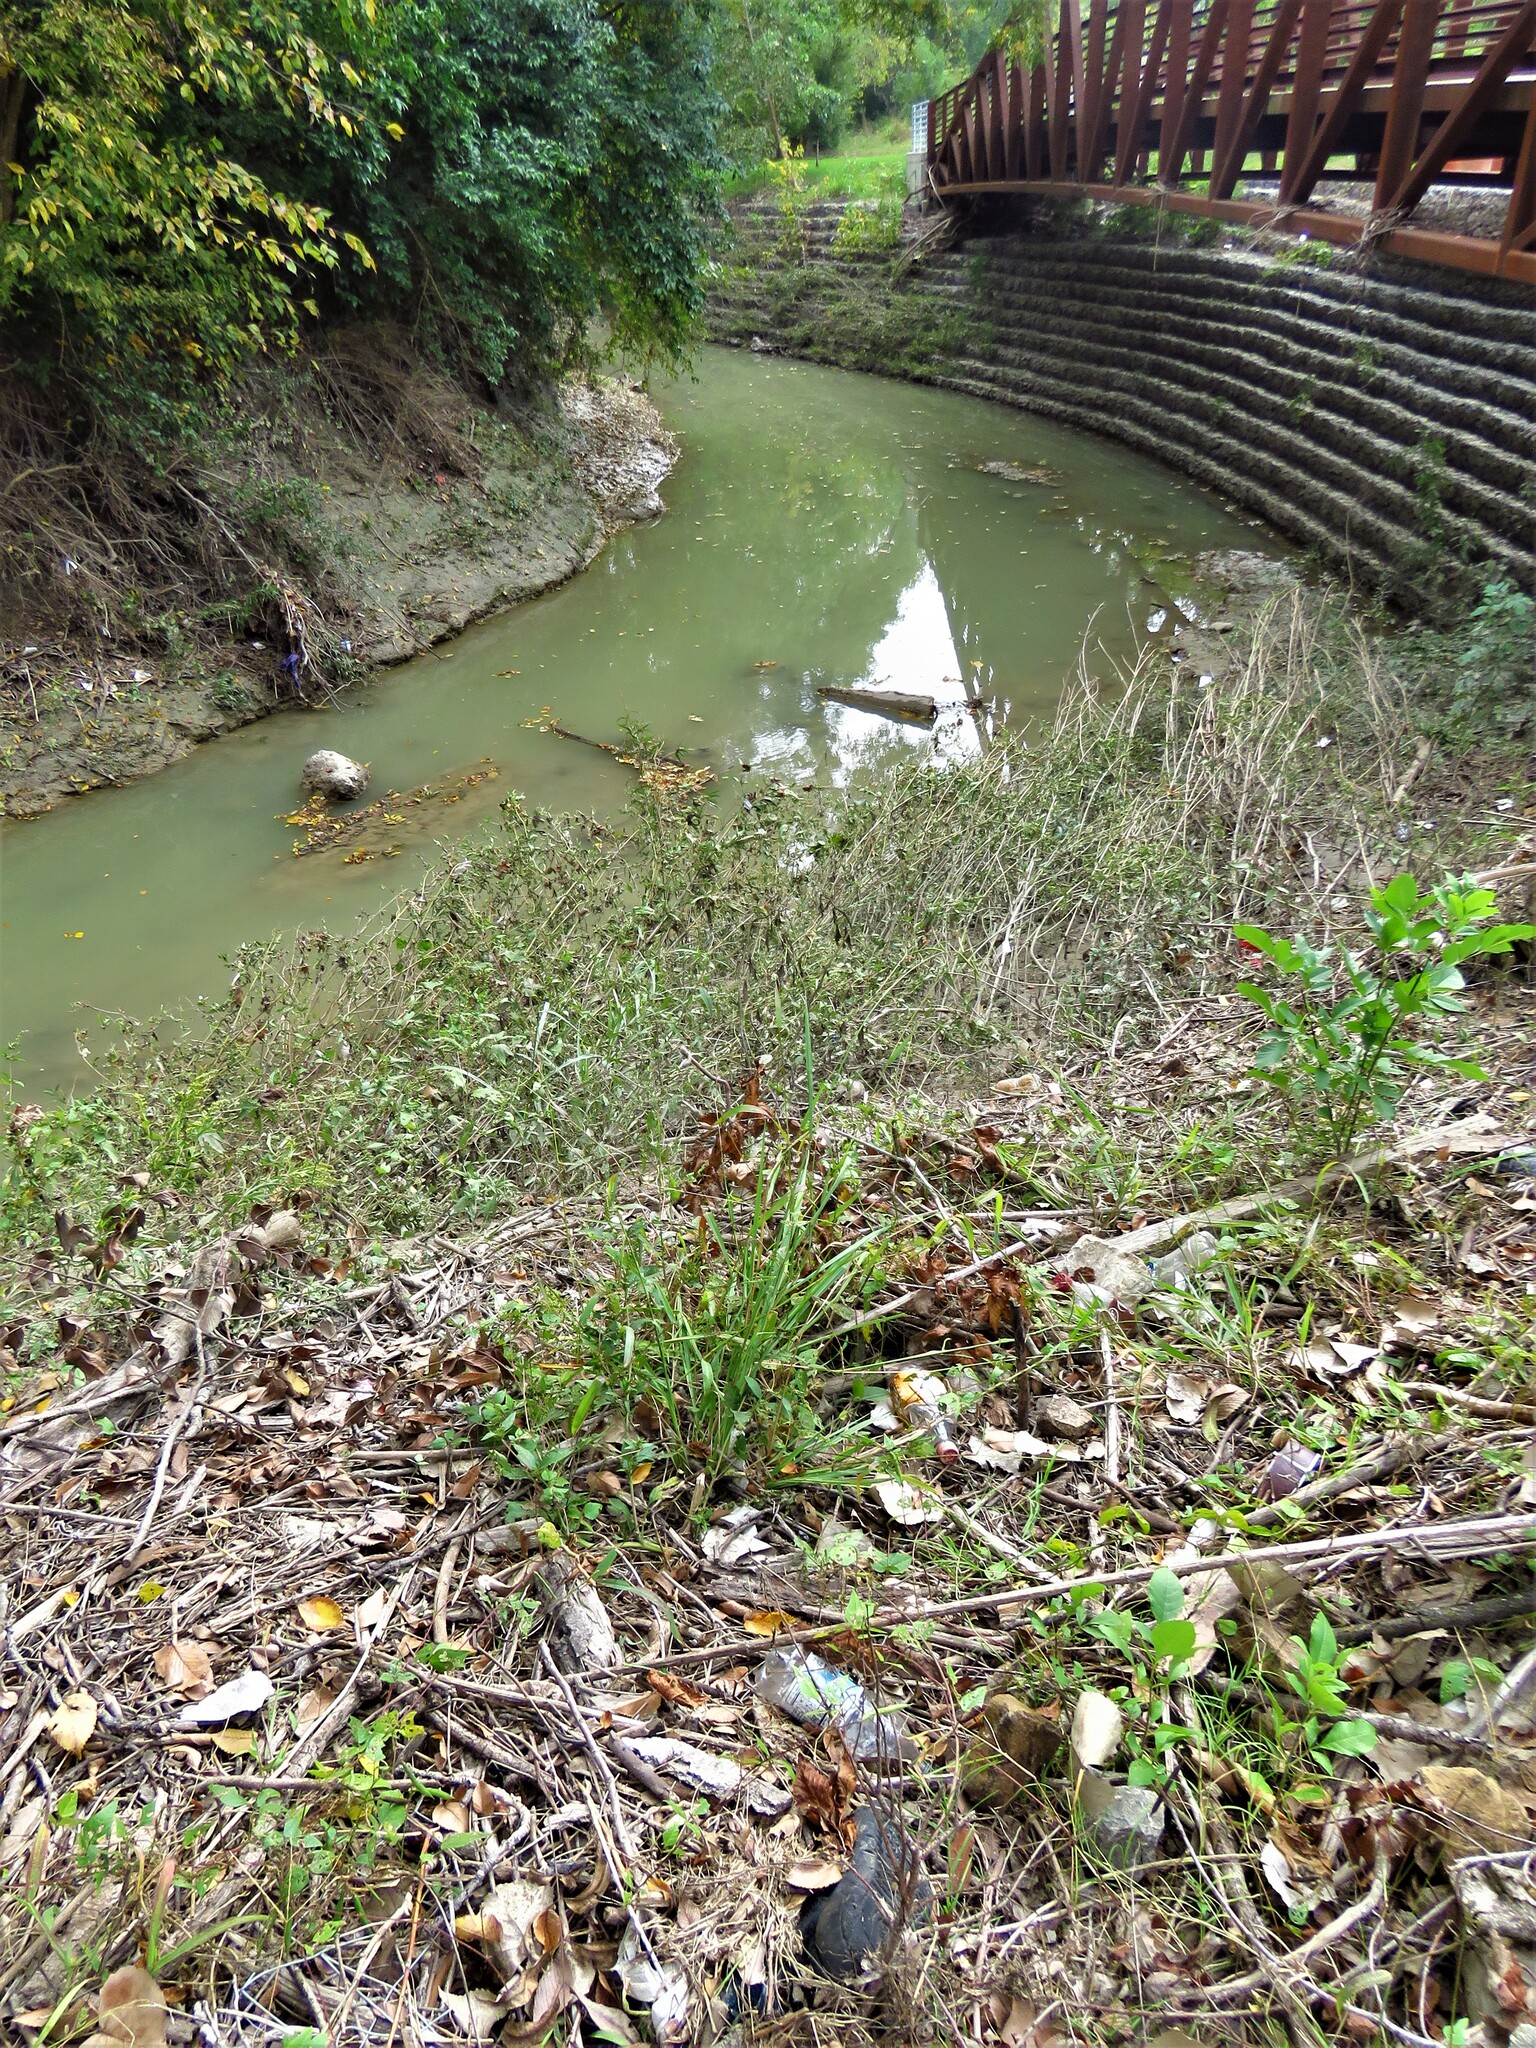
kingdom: Plantae
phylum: Tracheophyta
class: Magnoliopsida
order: Fabales
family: Fabaceae
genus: Strophostyles
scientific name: Strophostyles helvola
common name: Trailing wild bean
